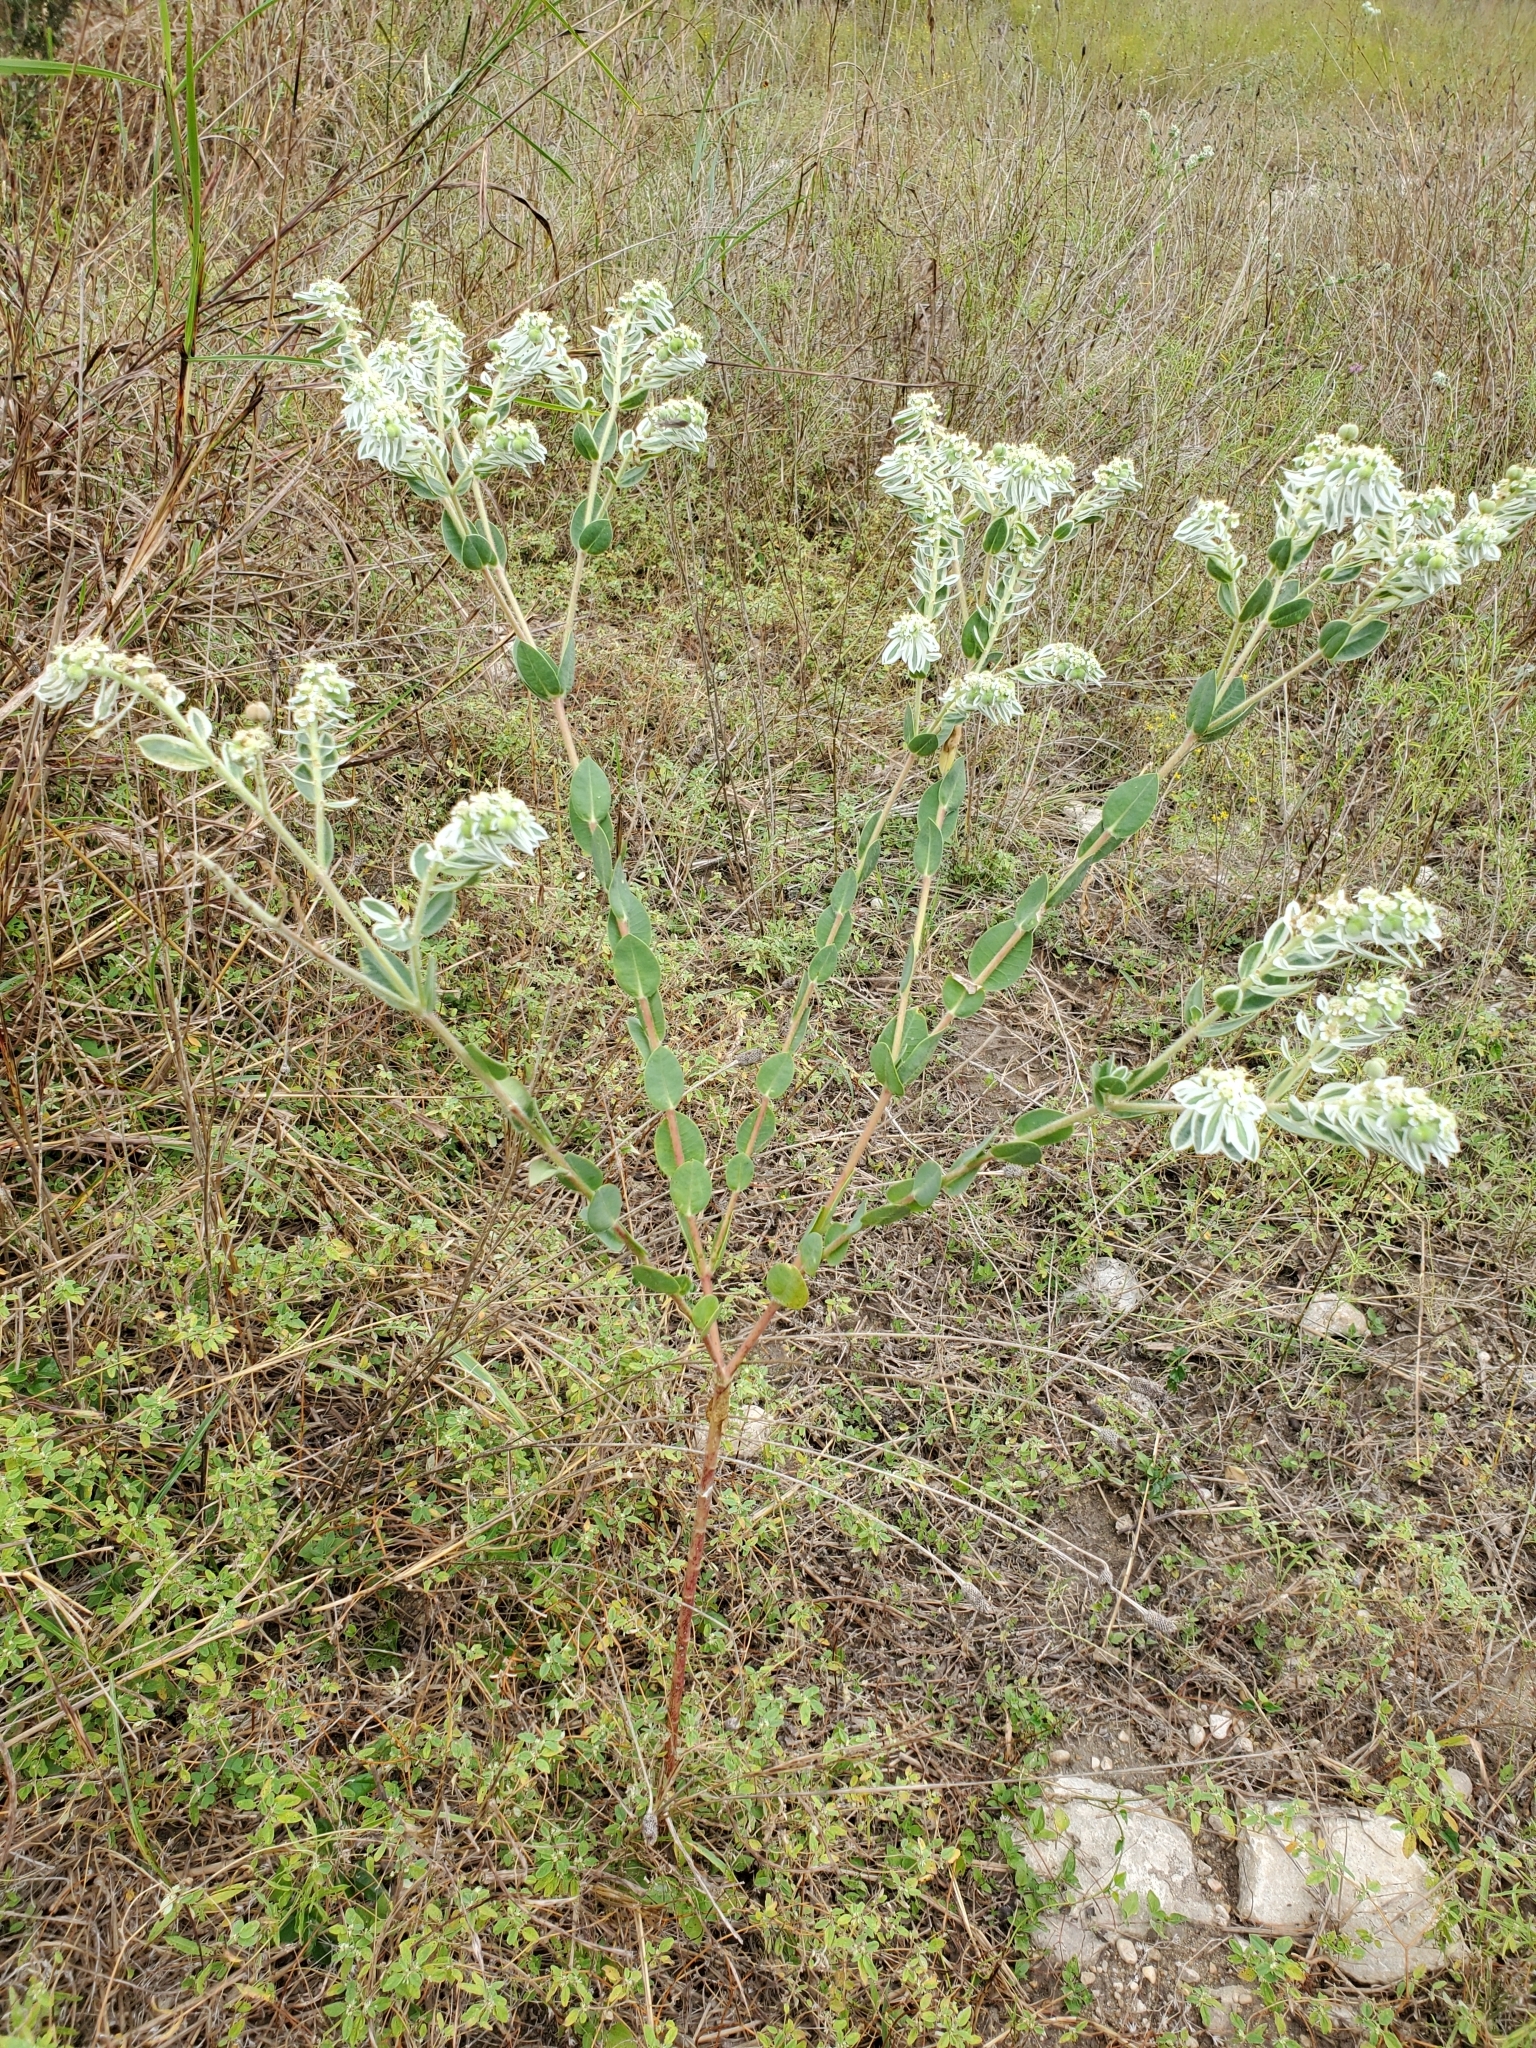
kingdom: Plantae
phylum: Tracheophyta
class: Magnoliopsida
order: Malpighiales
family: Euphorbiaceae
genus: Euphorbia
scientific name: Euphorbia marginata
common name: Ghostweed
